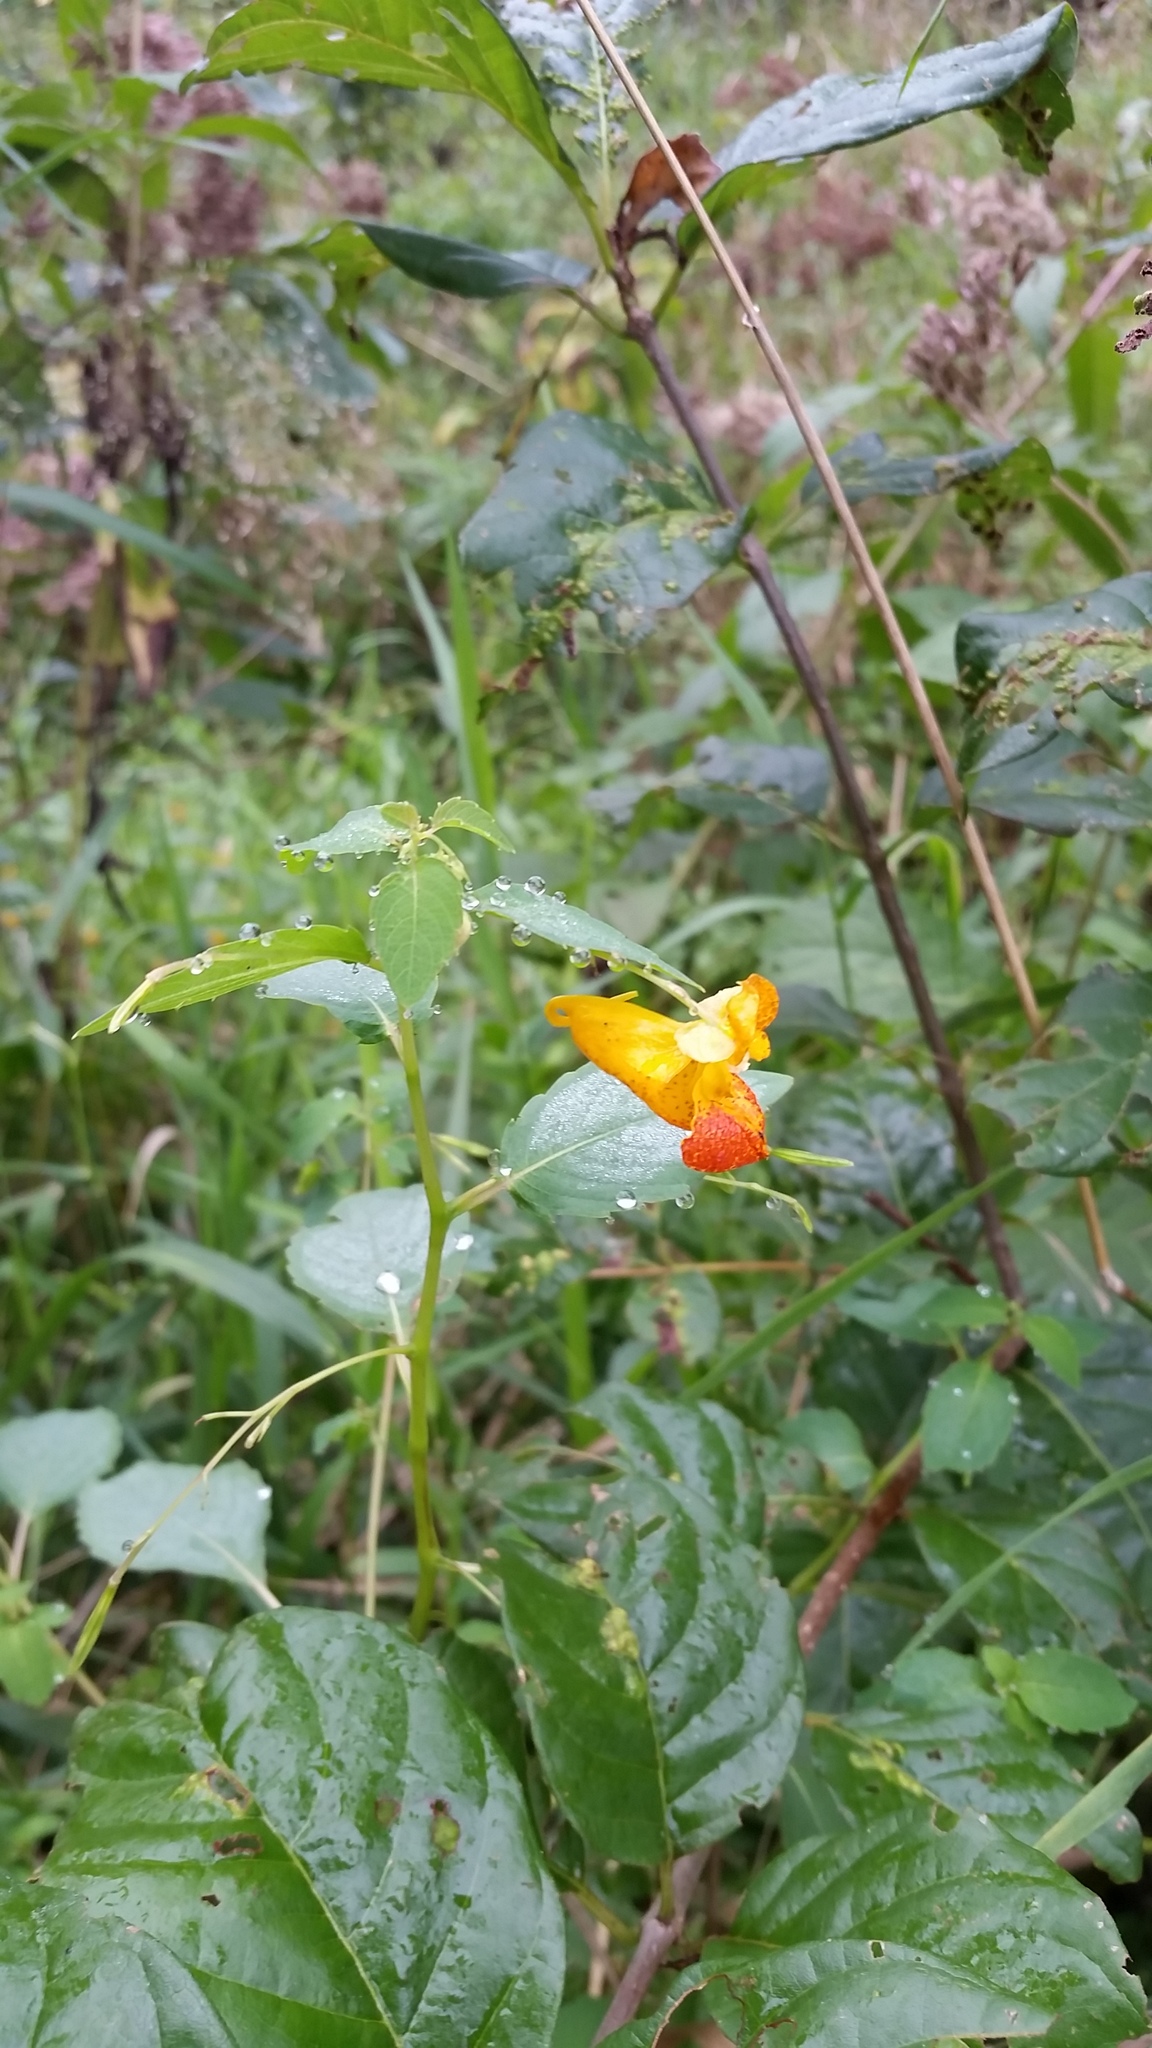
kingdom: Plantae
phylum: Tracheophyta
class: Magnoliopsida
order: Ericales
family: Balsaminaceae
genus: Impatiens
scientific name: Impatiens capensis
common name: Orange balsam
